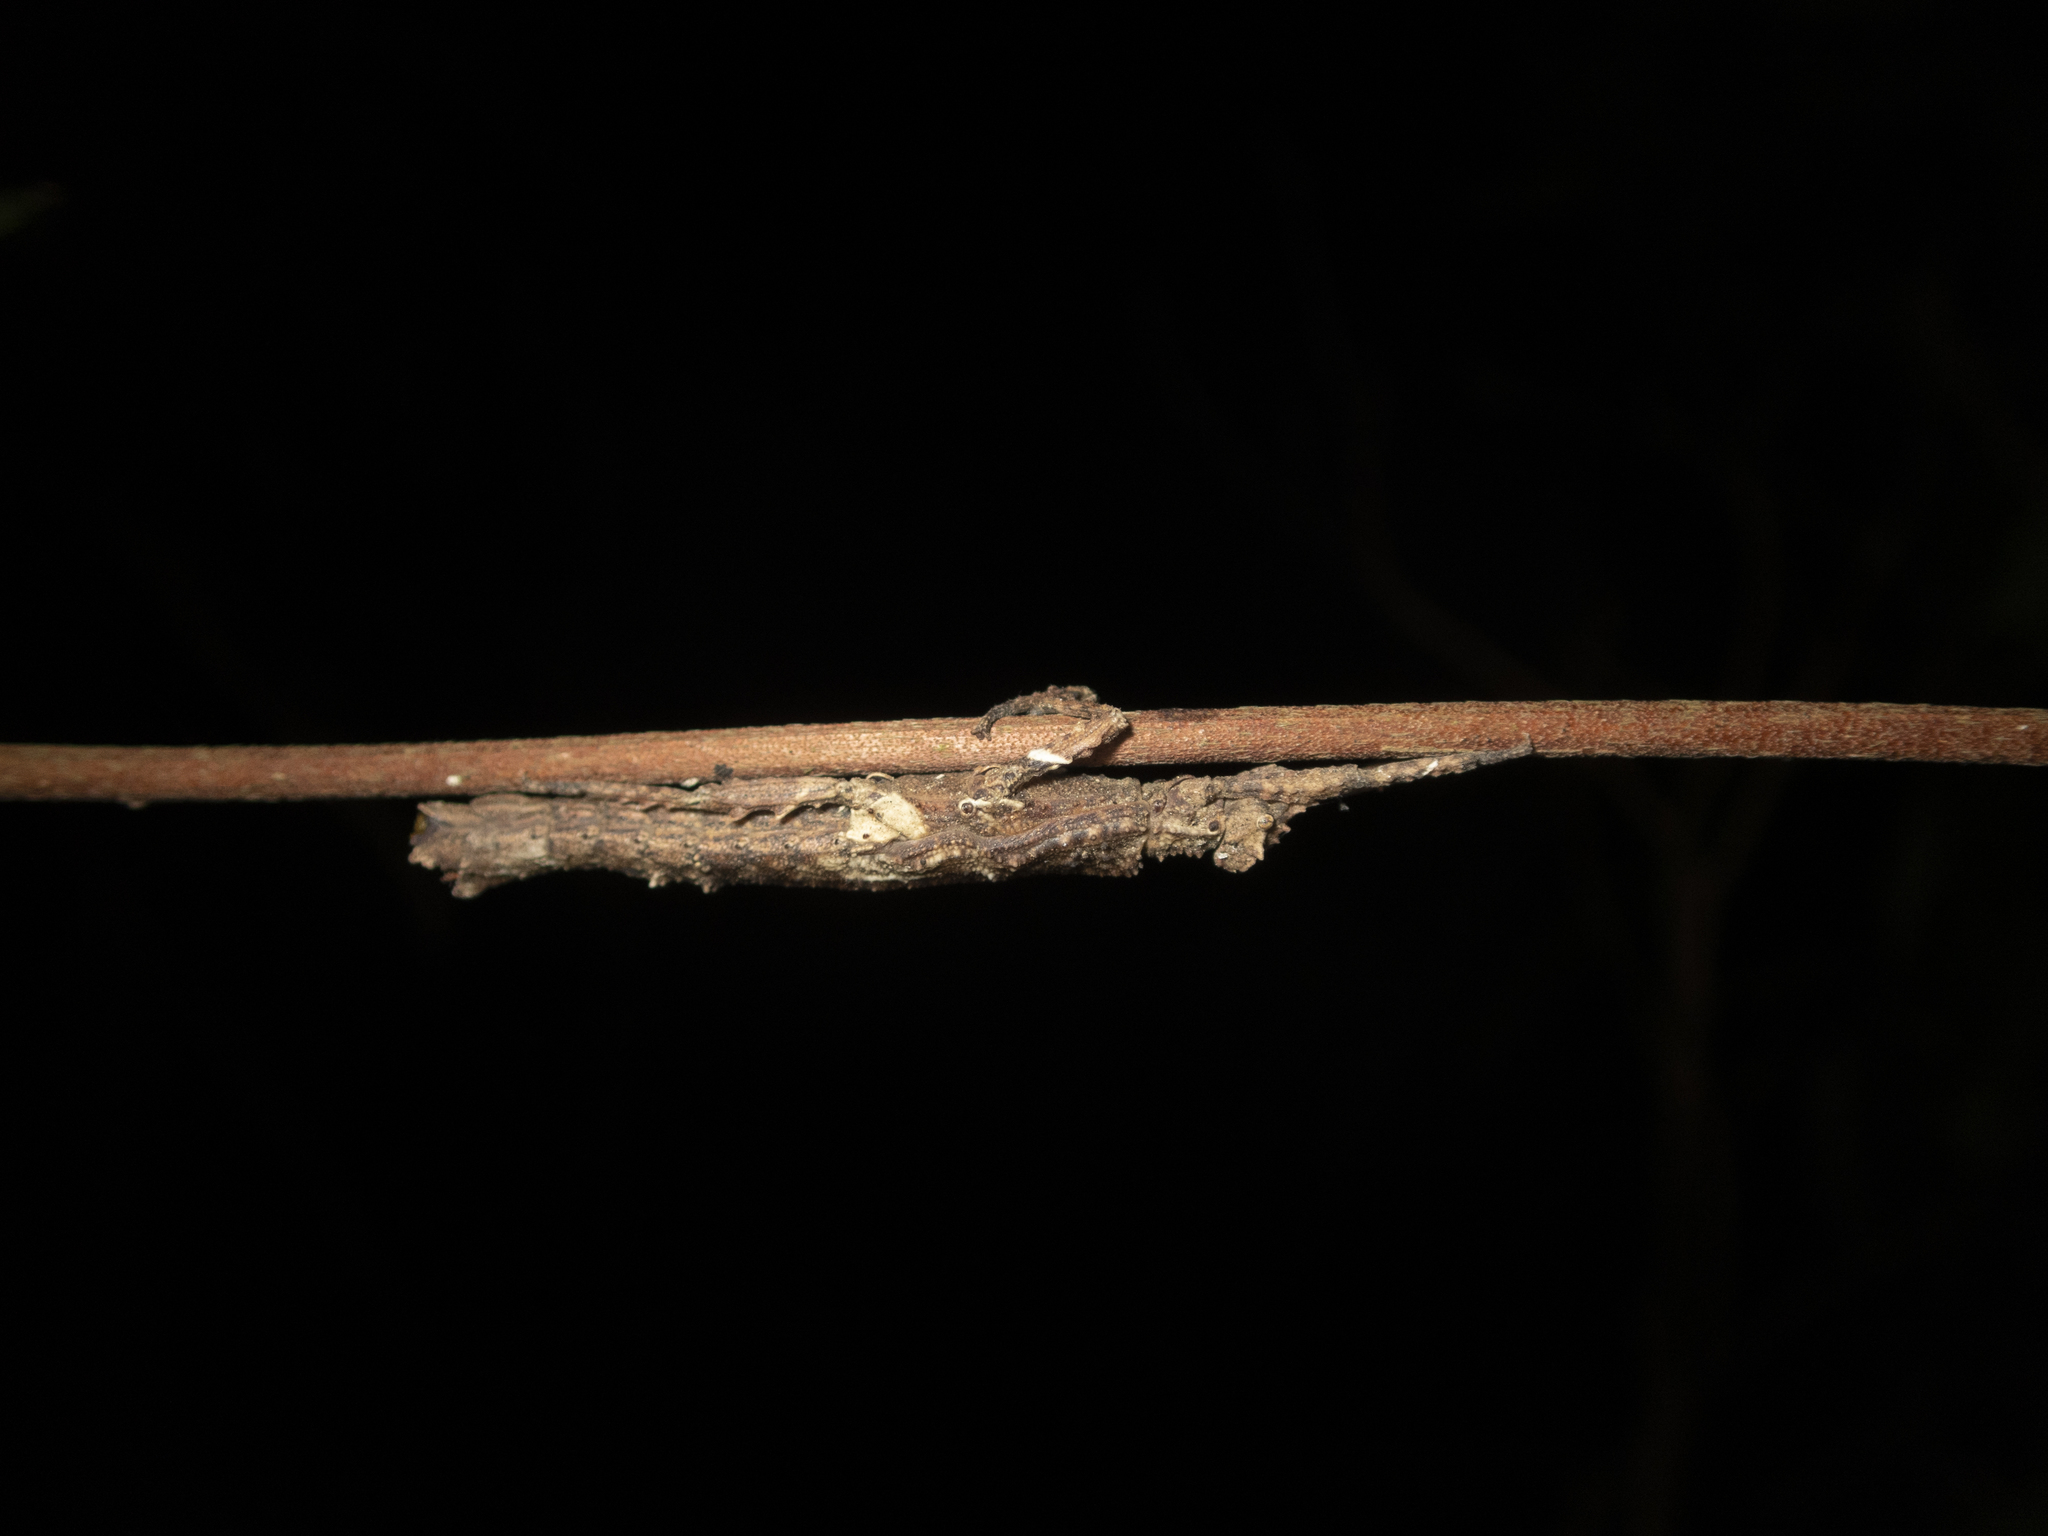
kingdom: Animalia
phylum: Arthropoda
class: Insecta
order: Phasmida
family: Heteropterygidae
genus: Orestes
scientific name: Orestes guangxiensis
